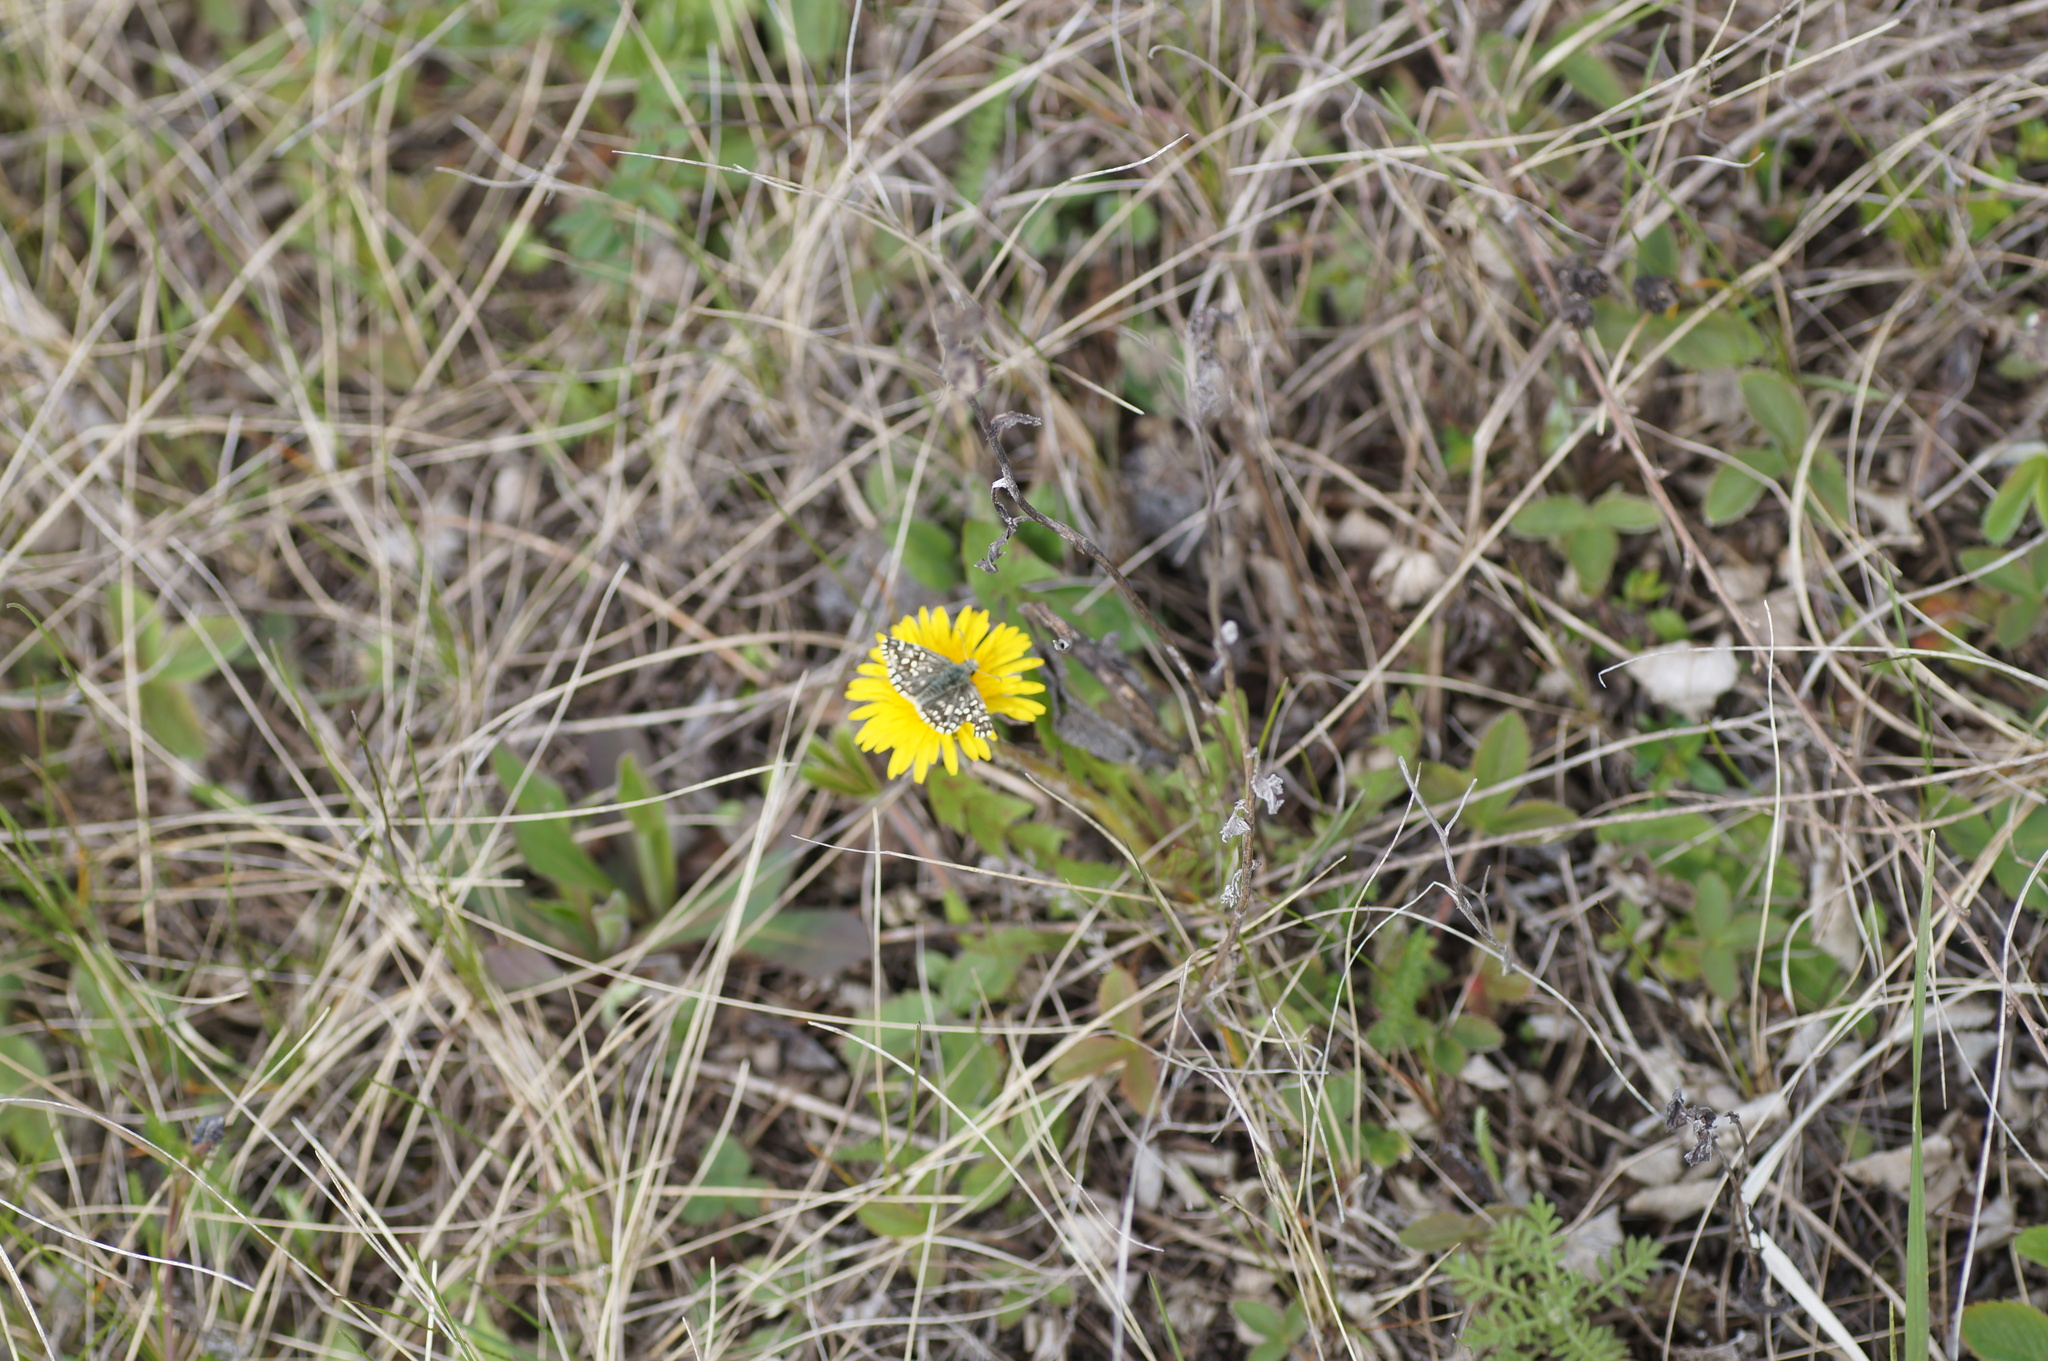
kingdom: Animalia
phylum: Arthropoda
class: Insecta
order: Lepidoptera
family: Hesperiidae
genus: Pyrgus
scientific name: Pyrgus malvae
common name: Grizzled skipper
